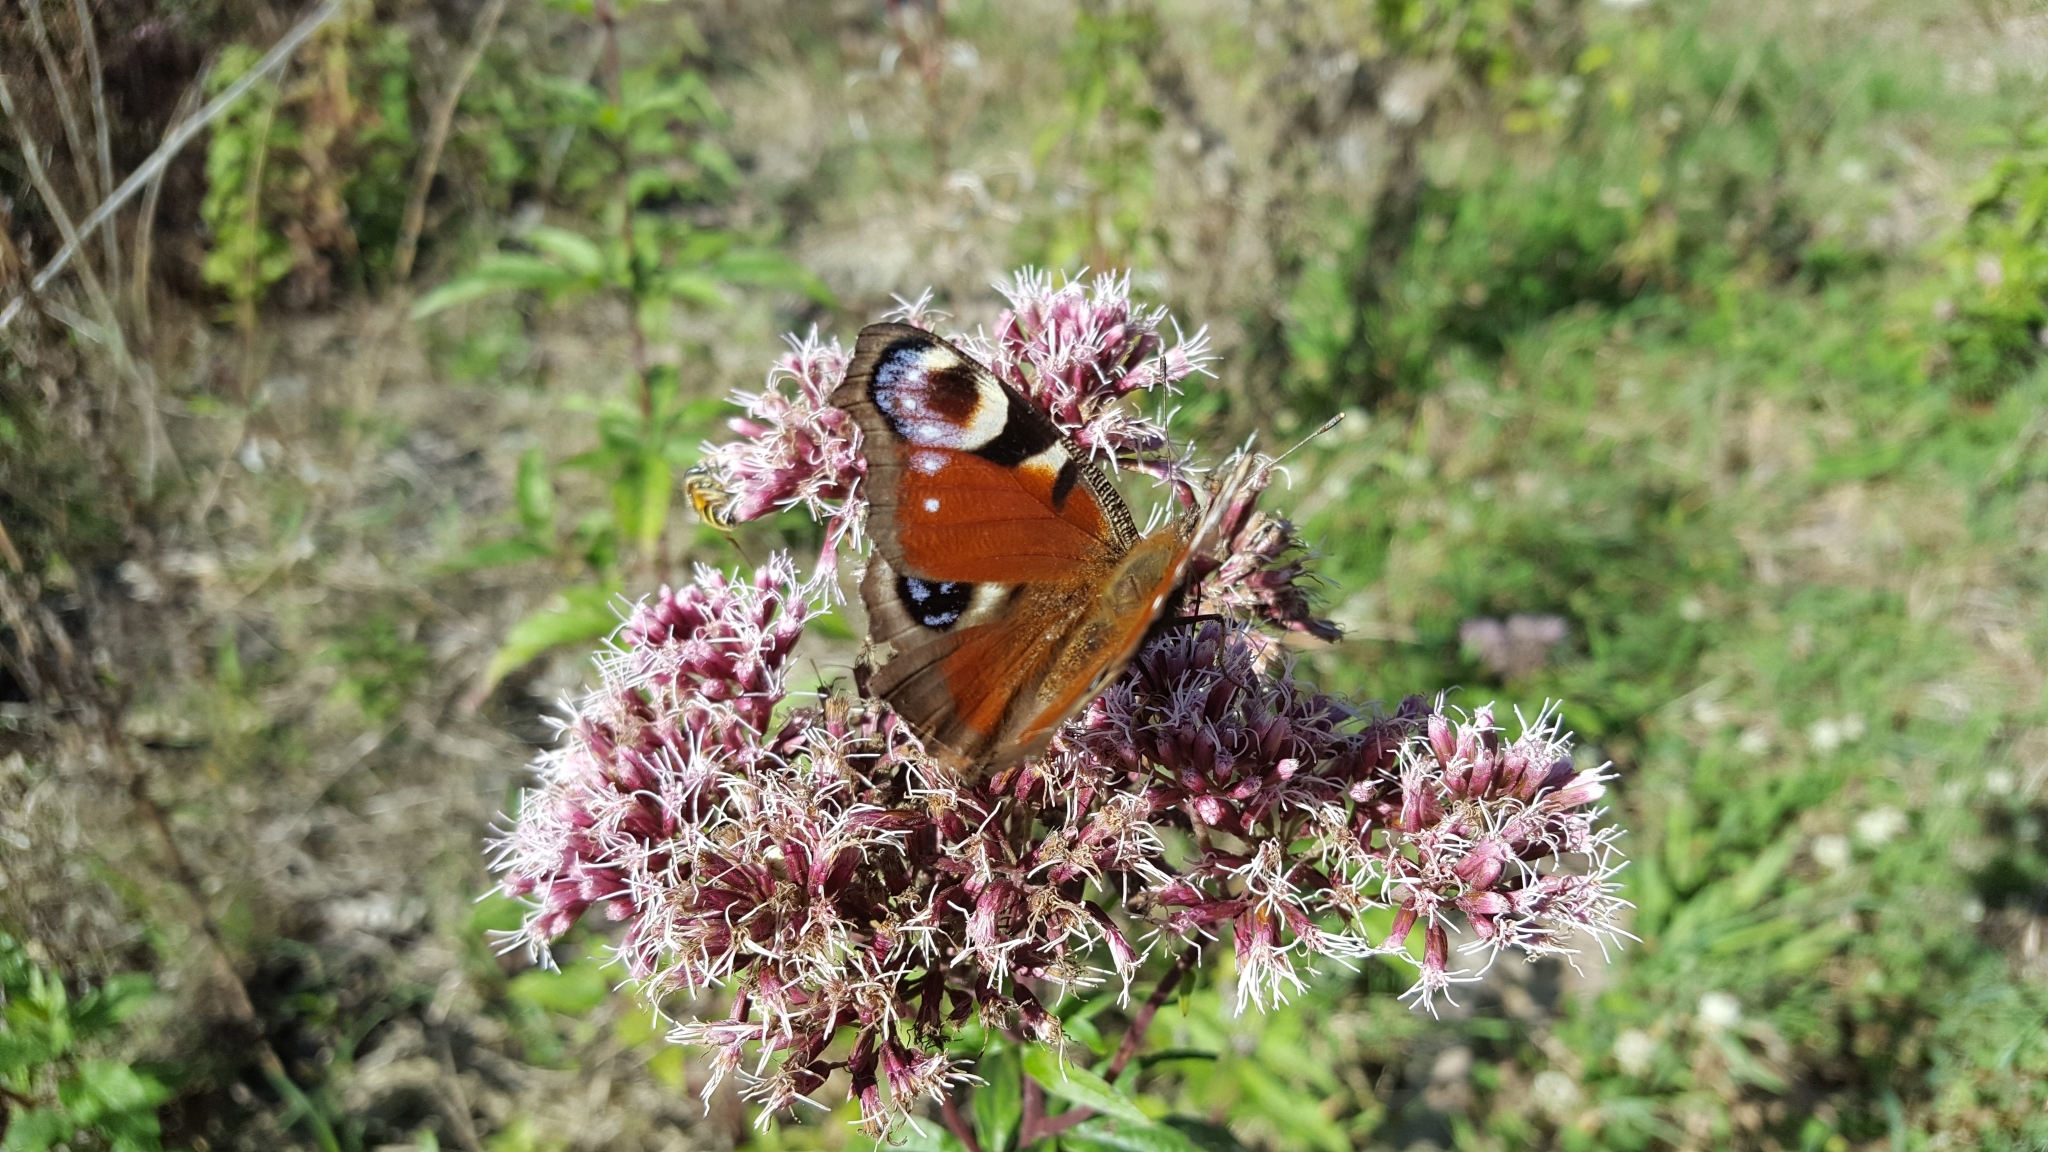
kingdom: Animalia
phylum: Arthropoda
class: Insecta
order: Lepidoptera
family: Nymphalidae
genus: Aglais
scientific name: Aglais io
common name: Peacock
